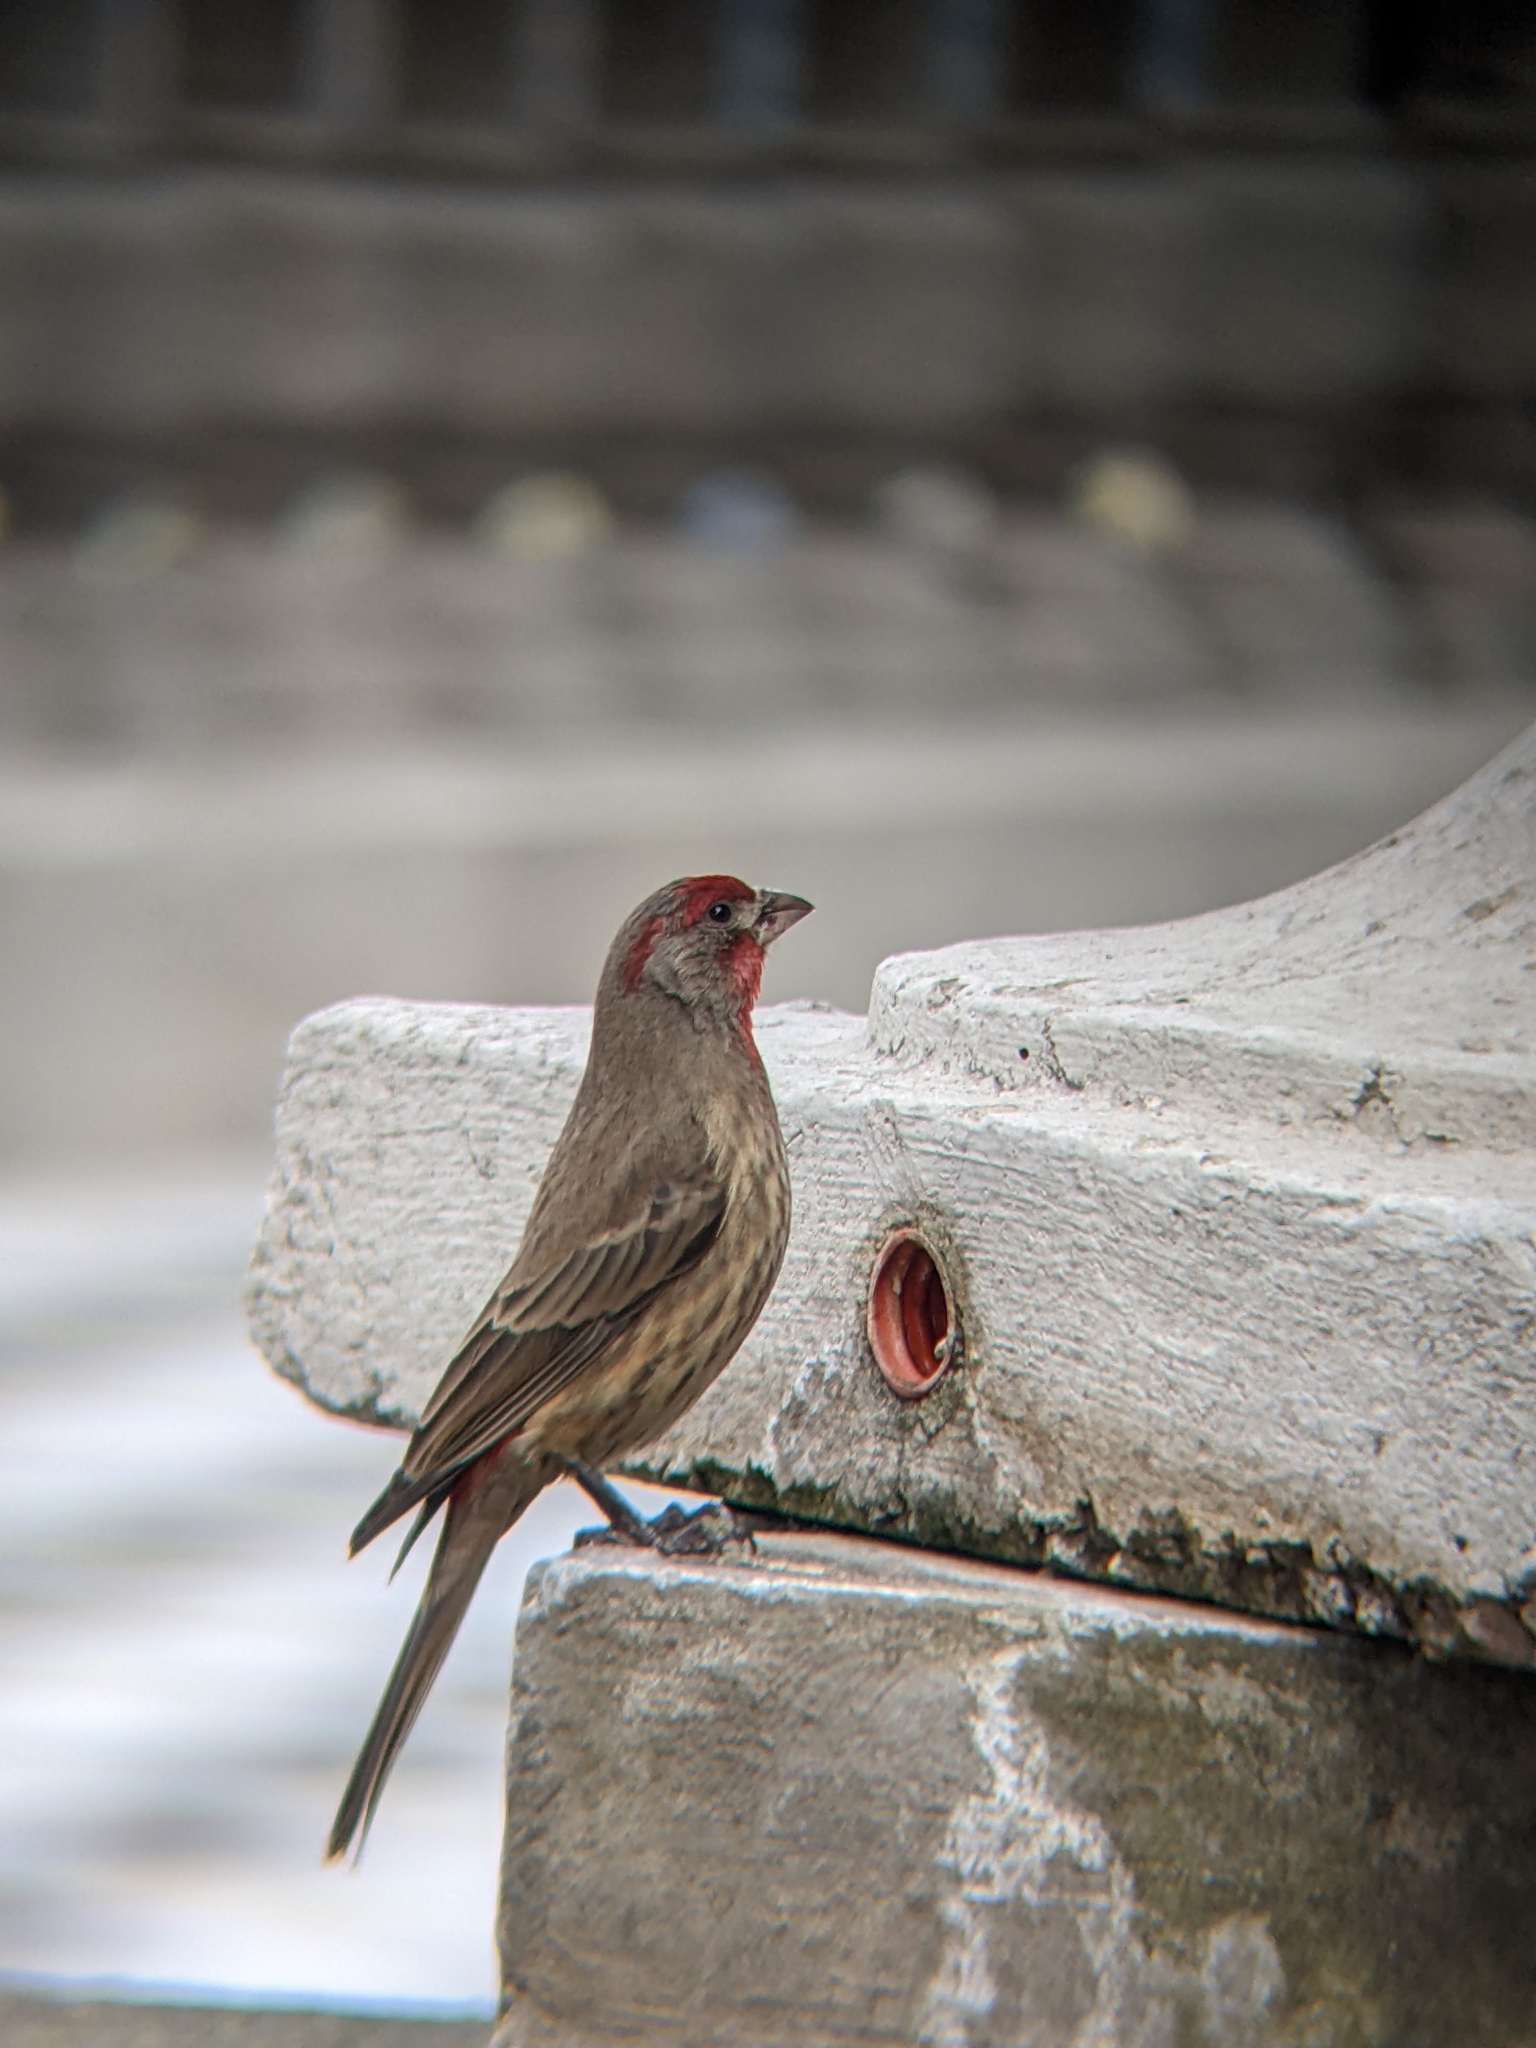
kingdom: Animalia
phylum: Chordata
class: Aves
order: Passeriformes
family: Fringillidae
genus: Haemorhous
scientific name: Haemorhous mexicanus
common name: House finch
